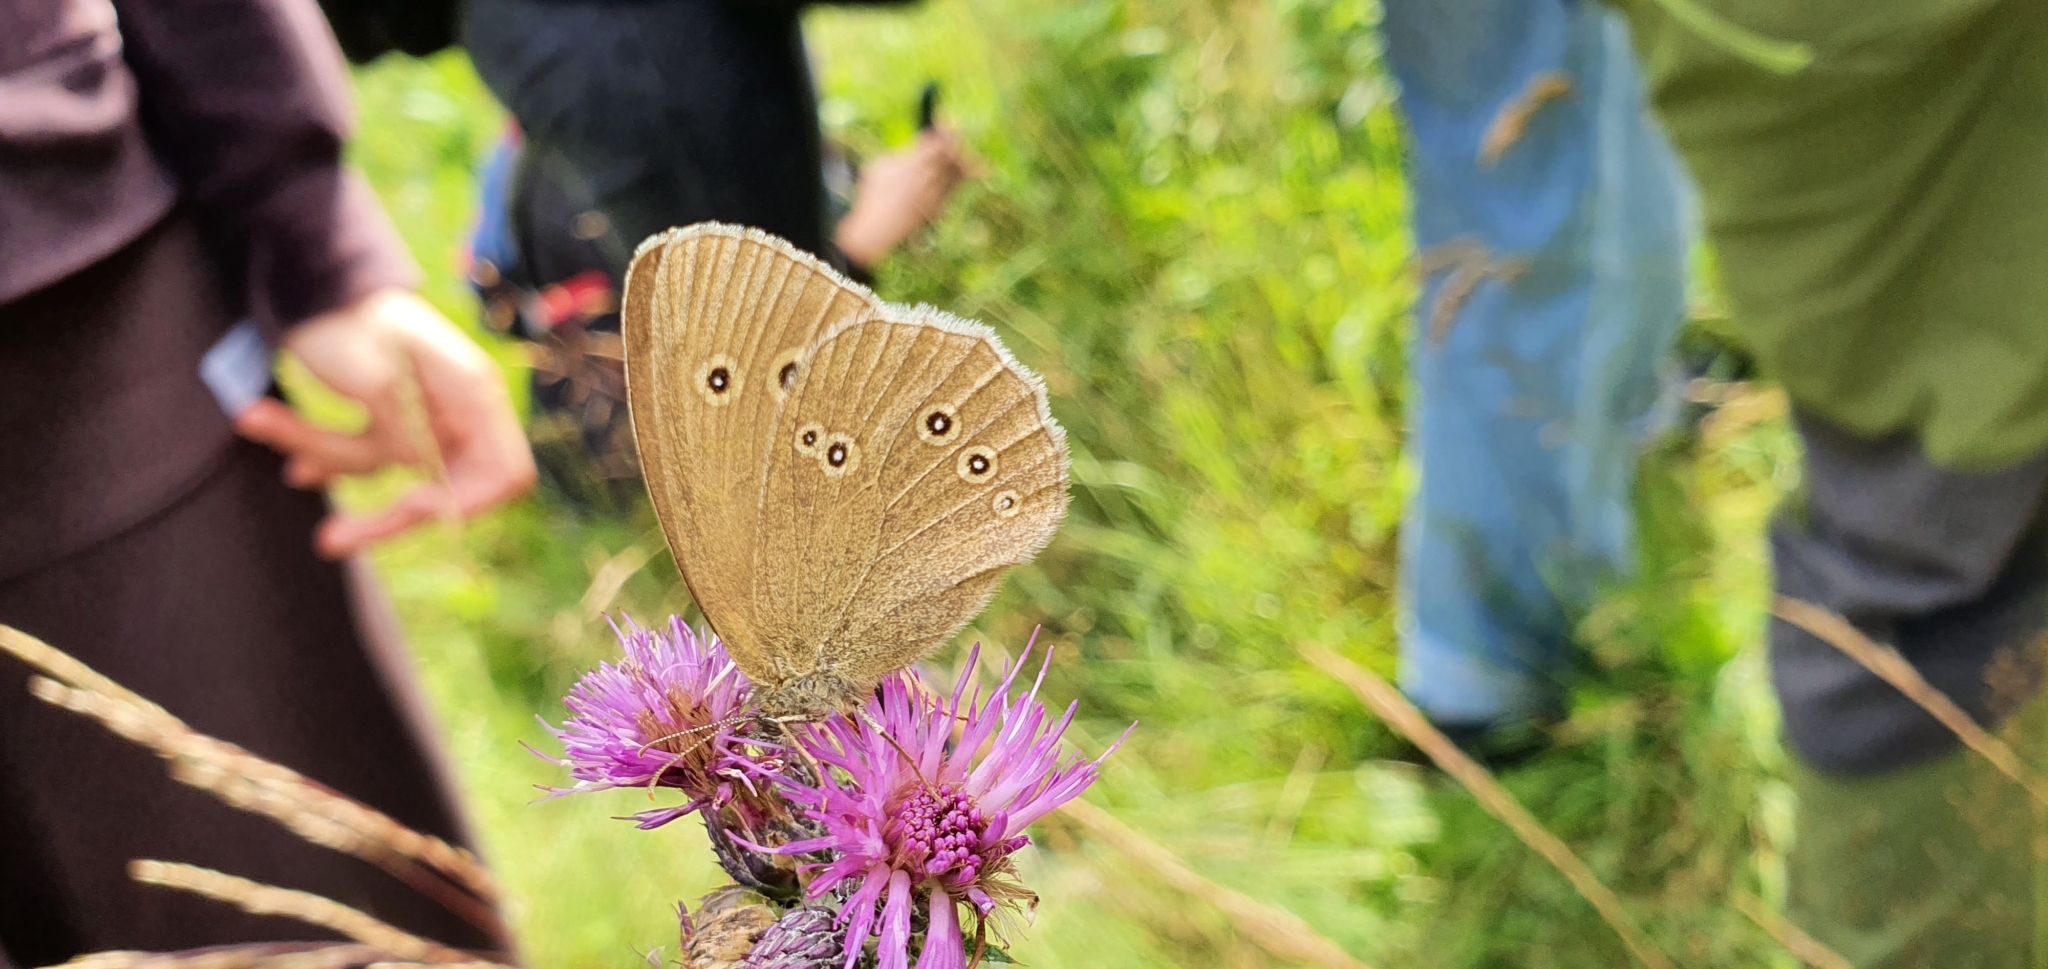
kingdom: Animalia
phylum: Arthropoda
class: Insecta
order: Lepidoptera
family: Nymphalidae
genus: Aphantopus
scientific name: Aphantopus hyperantus
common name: Ringlet
